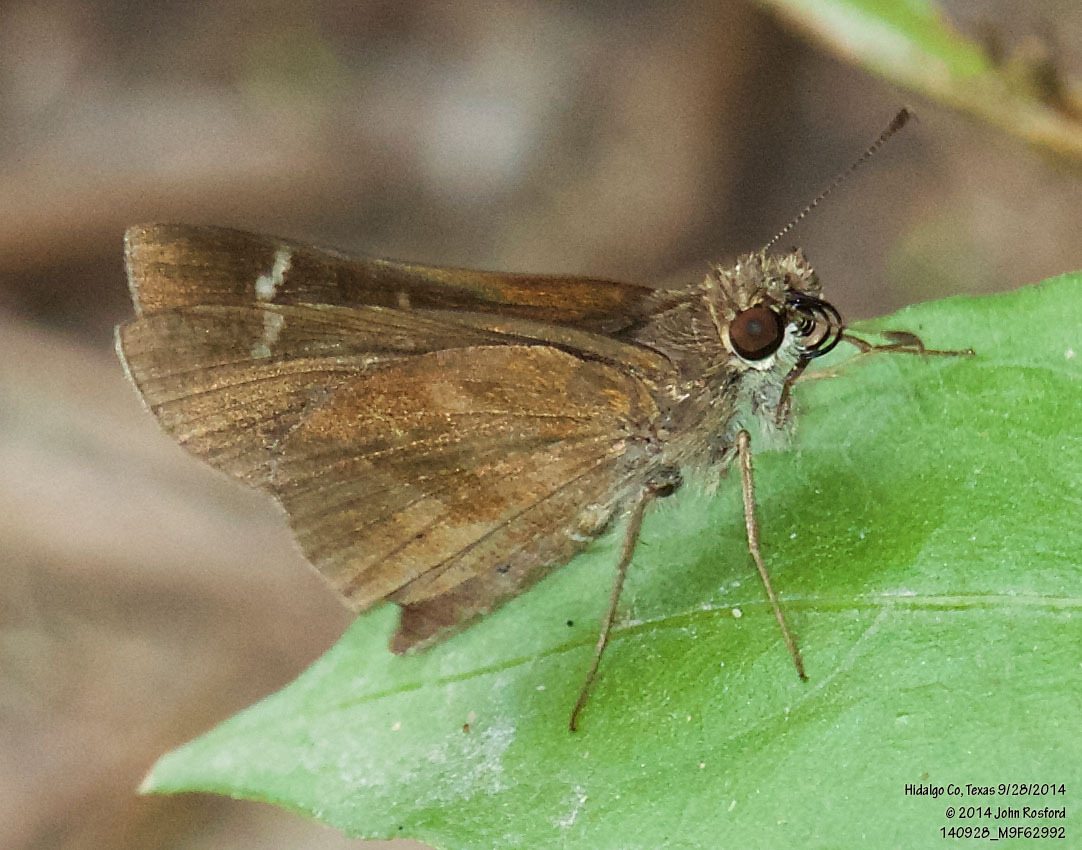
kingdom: Animalia
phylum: Arthropoda
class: Insecta
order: Lepidoptera
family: Hesperiidae
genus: Lerema
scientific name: Lerema accius
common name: Clouded skipper
